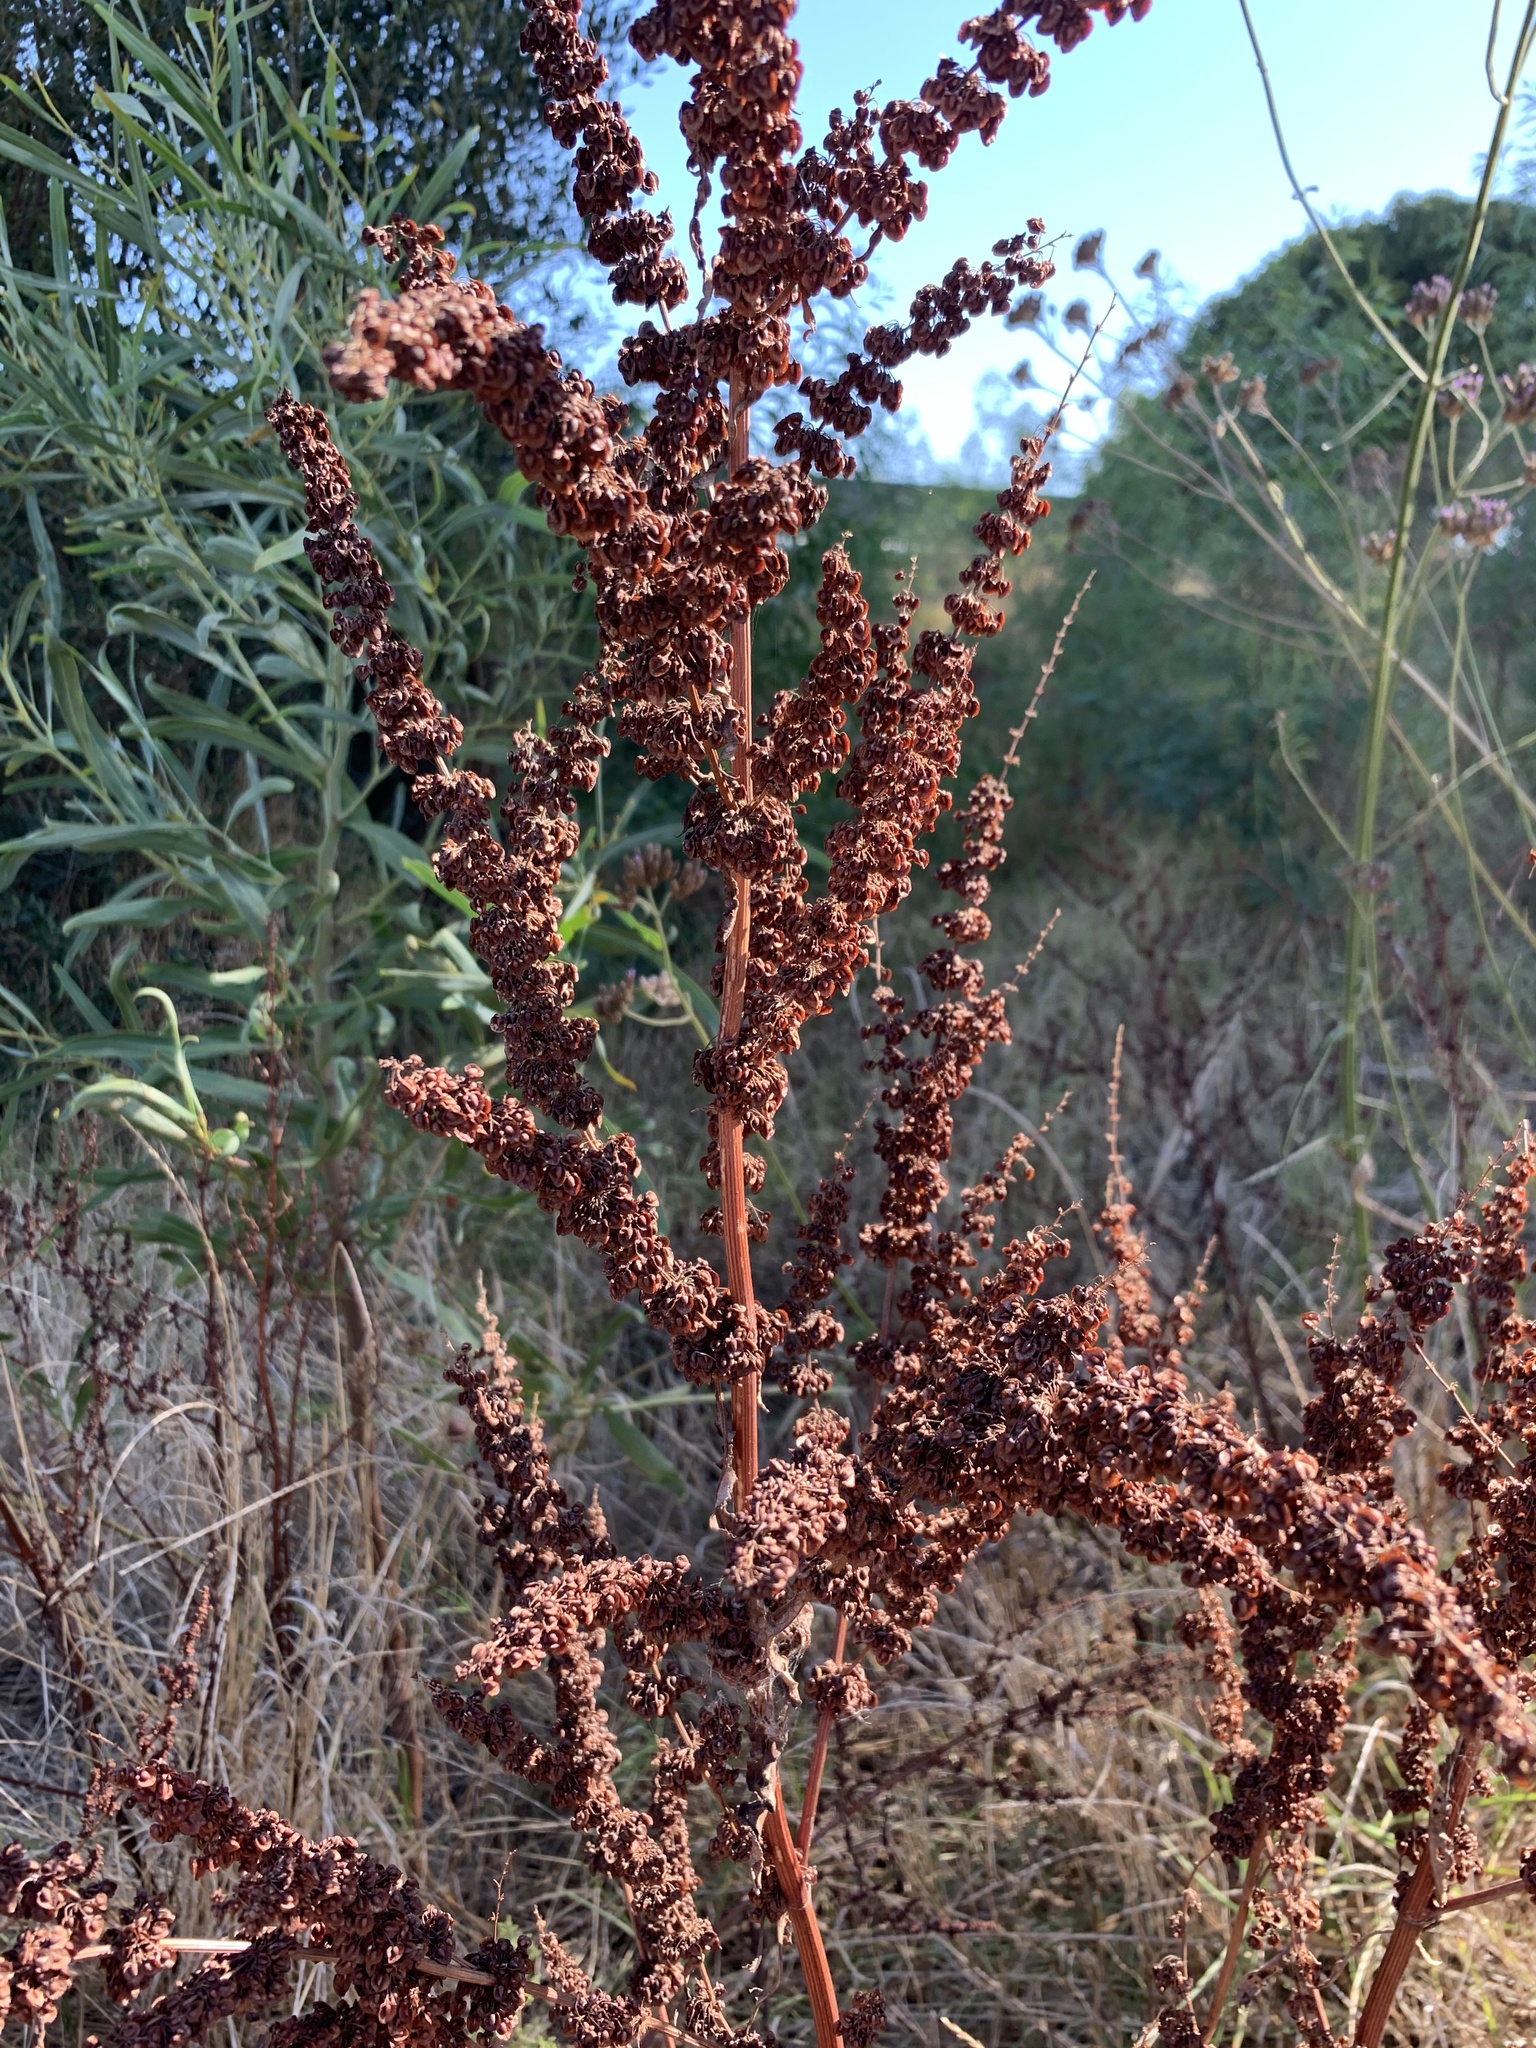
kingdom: Plantae
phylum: Tracheophyta
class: Magnoliopsida
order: Caryophyllales
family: Polygonaceae
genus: Rumex
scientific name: Rumex crispus
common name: Curled dock
